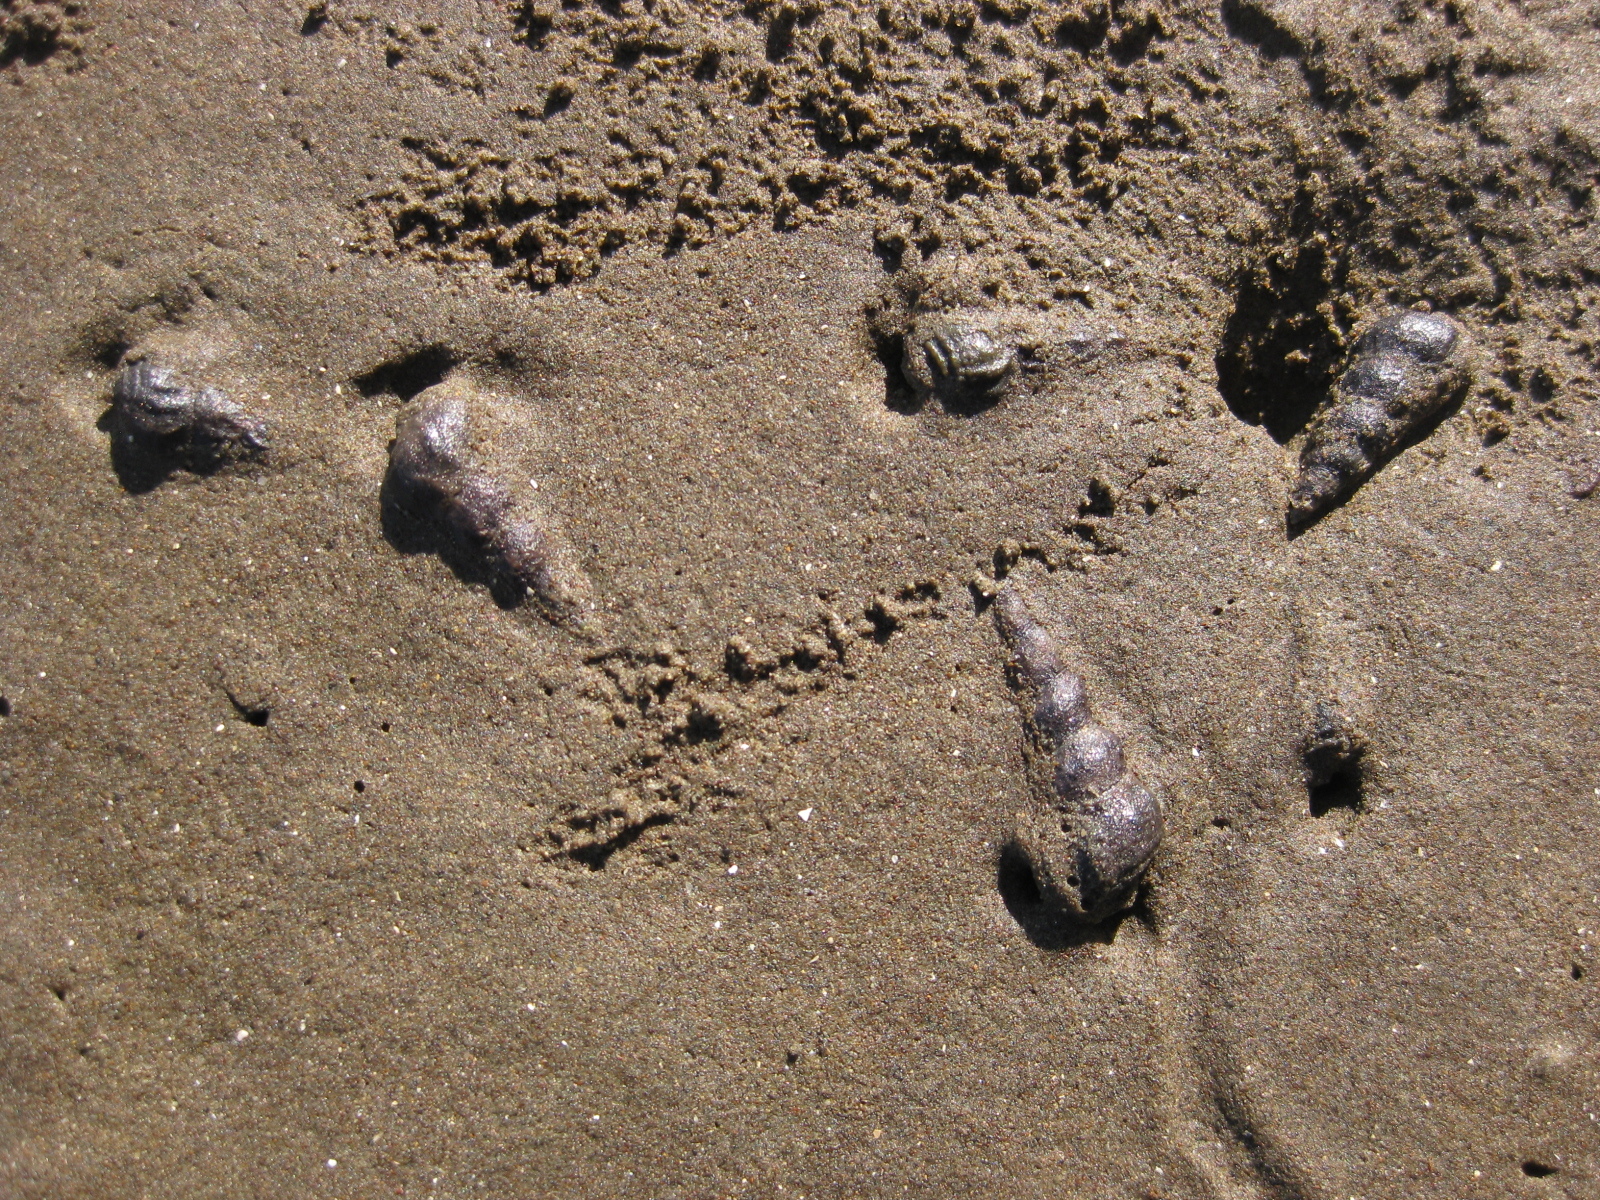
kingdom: Animalia
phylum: Mollusca
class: Gastropoda
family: Batillariidae
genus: Zeacumantus
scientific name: Zeacumantus lutulentus
